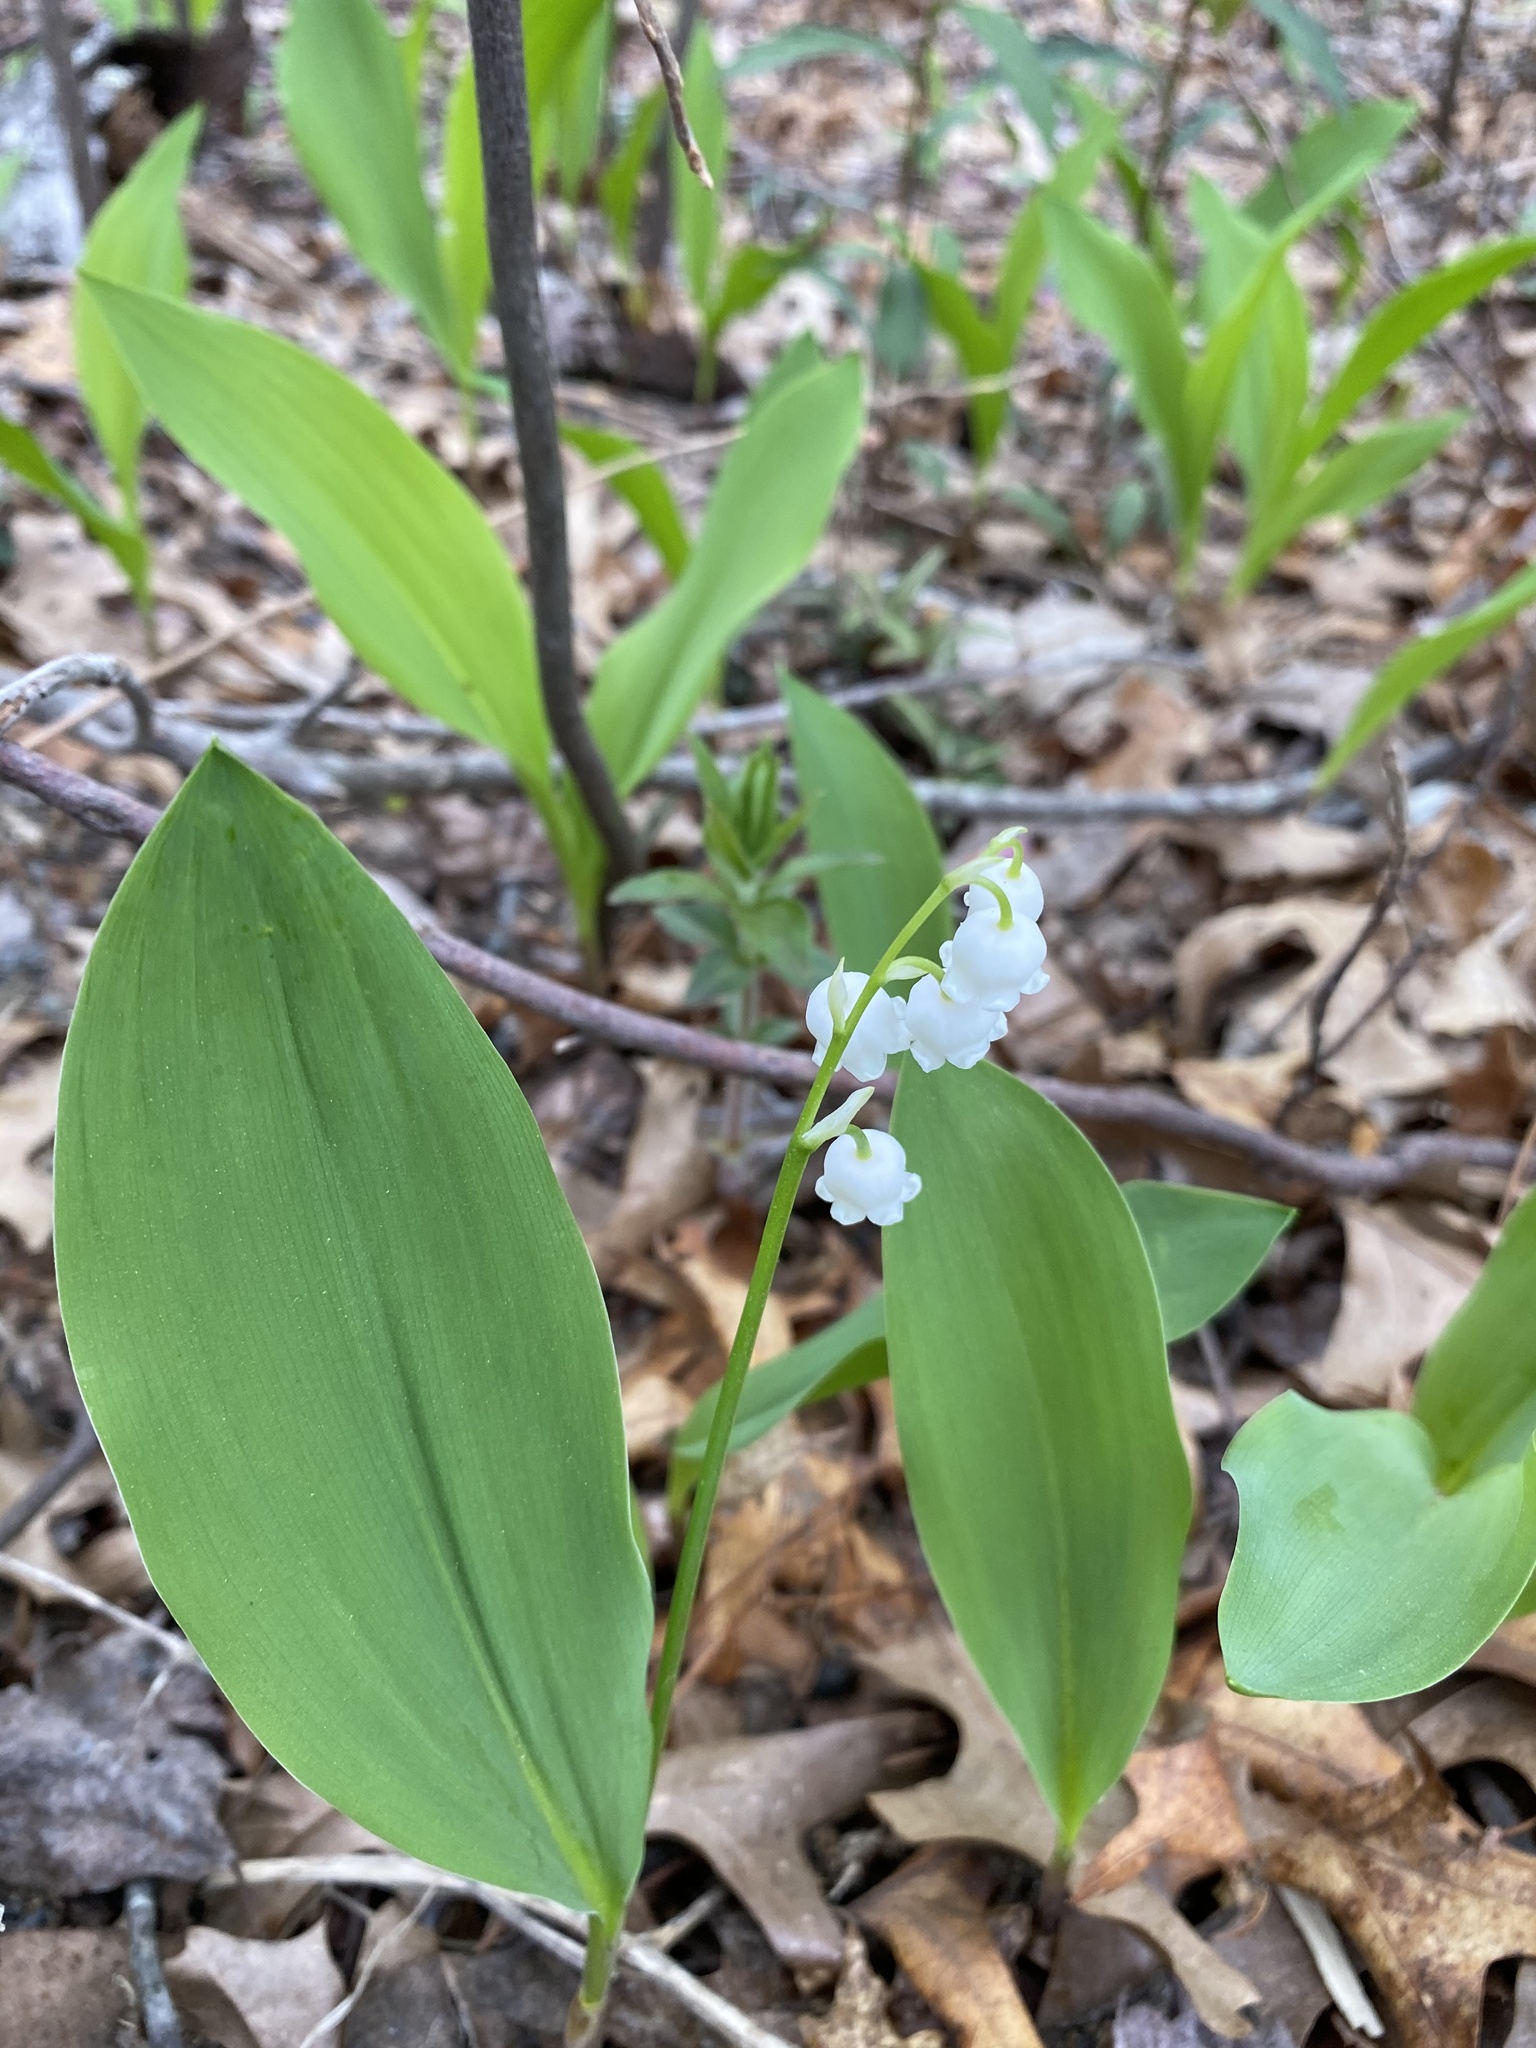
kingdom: Plantae
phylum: Tracheophyta
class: Liliopsida
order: Asparagales
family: Asparagaceae
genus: Convallaria
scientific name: Convallaria majalis
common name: Lily-of-the-valley
